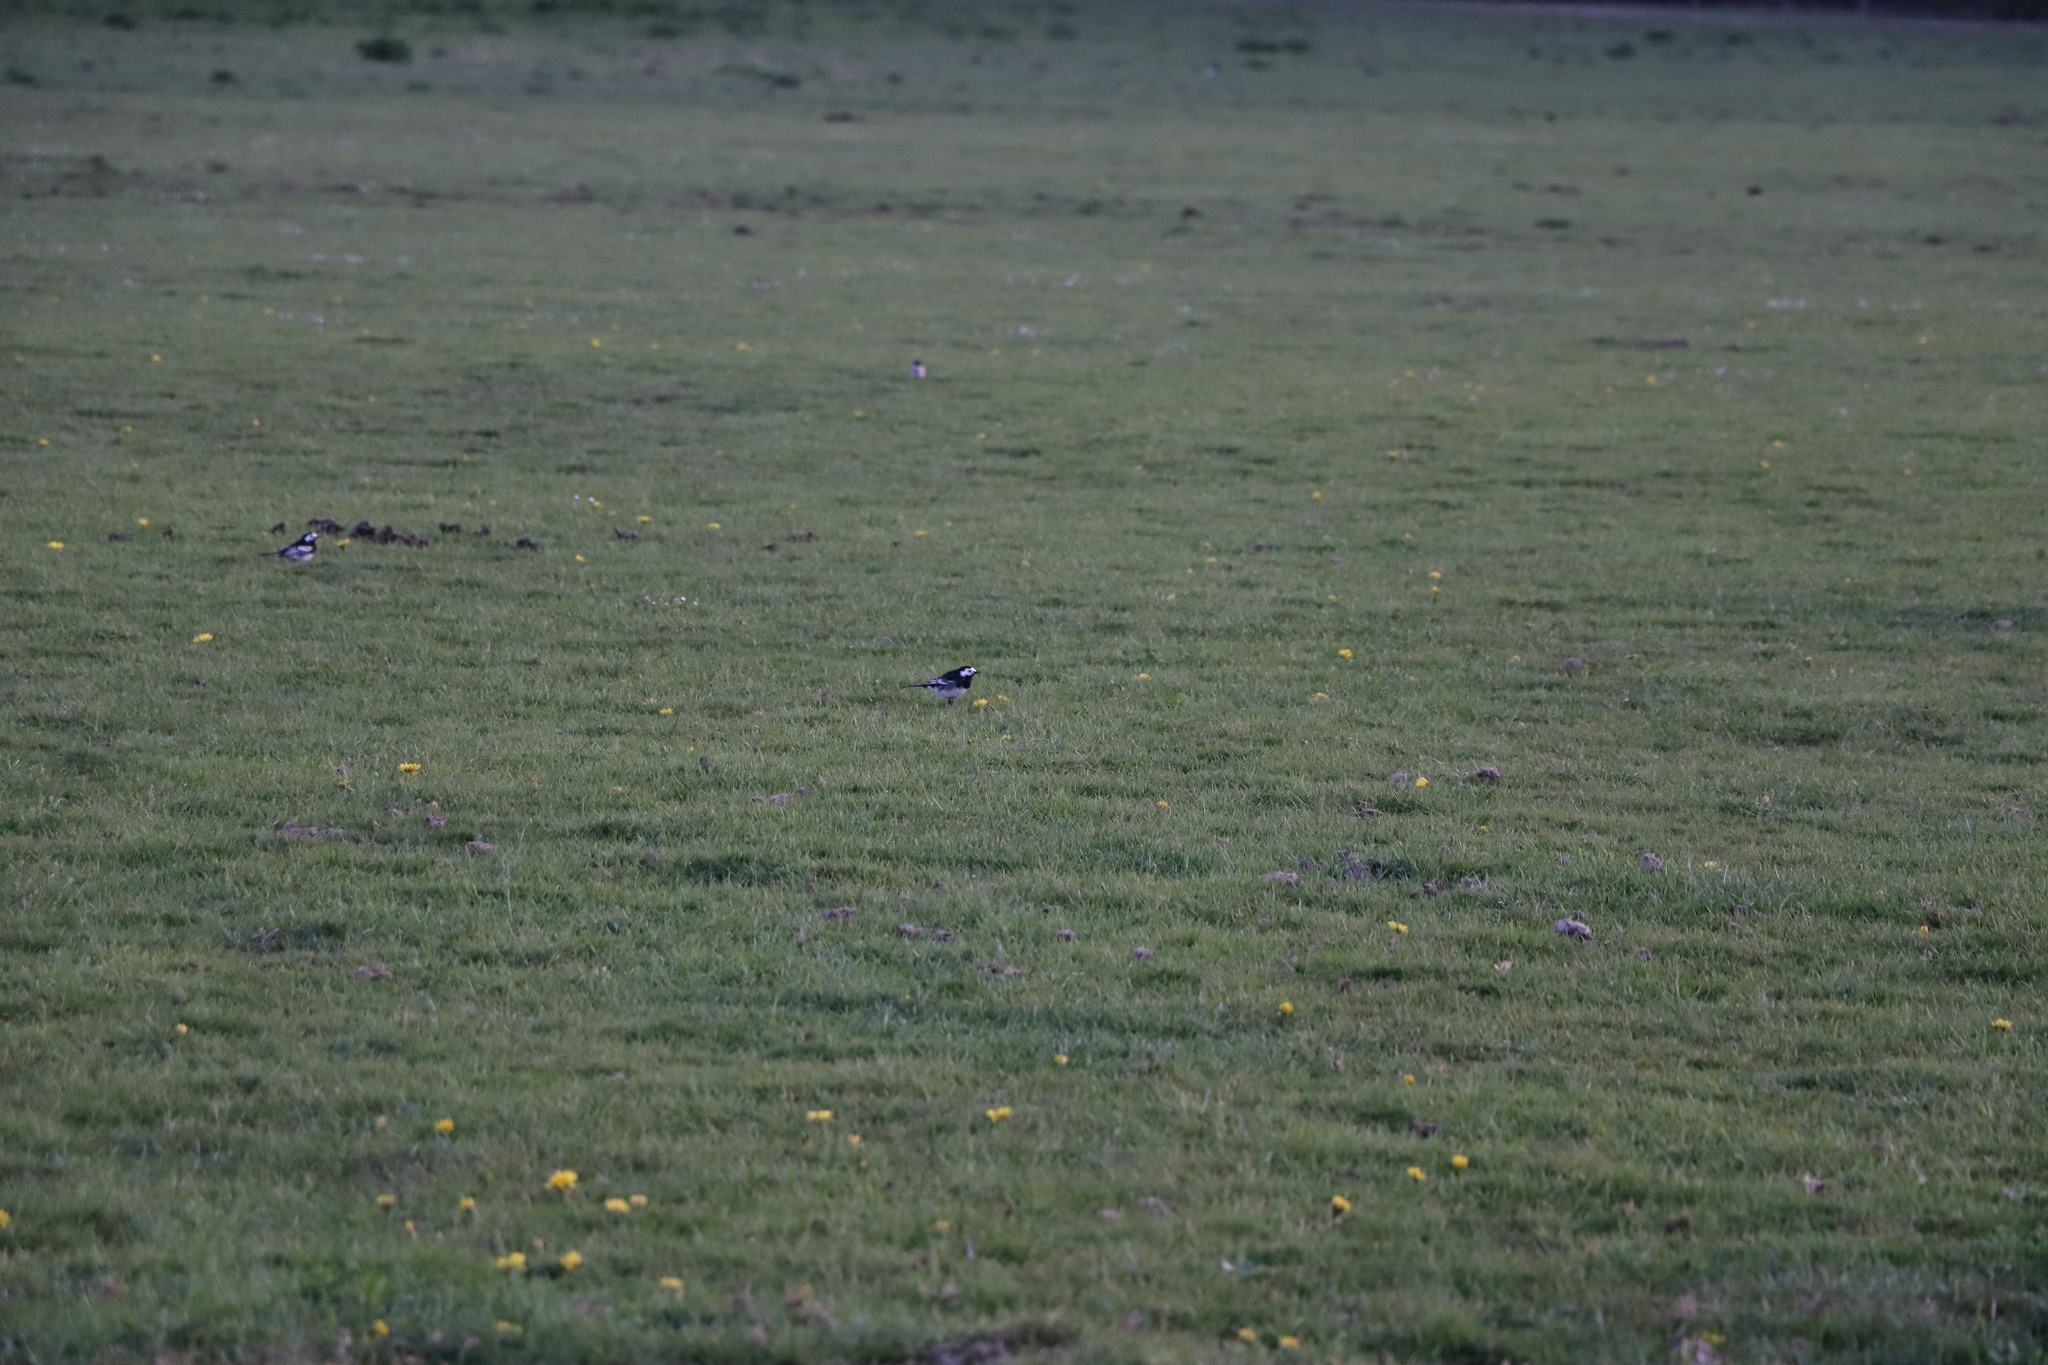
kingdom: Animalia
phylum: Chordata
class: Aves
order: Passeriformes
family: Motacillidae
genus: Motacilla
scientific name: Motacilla alba
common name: White wagtail
